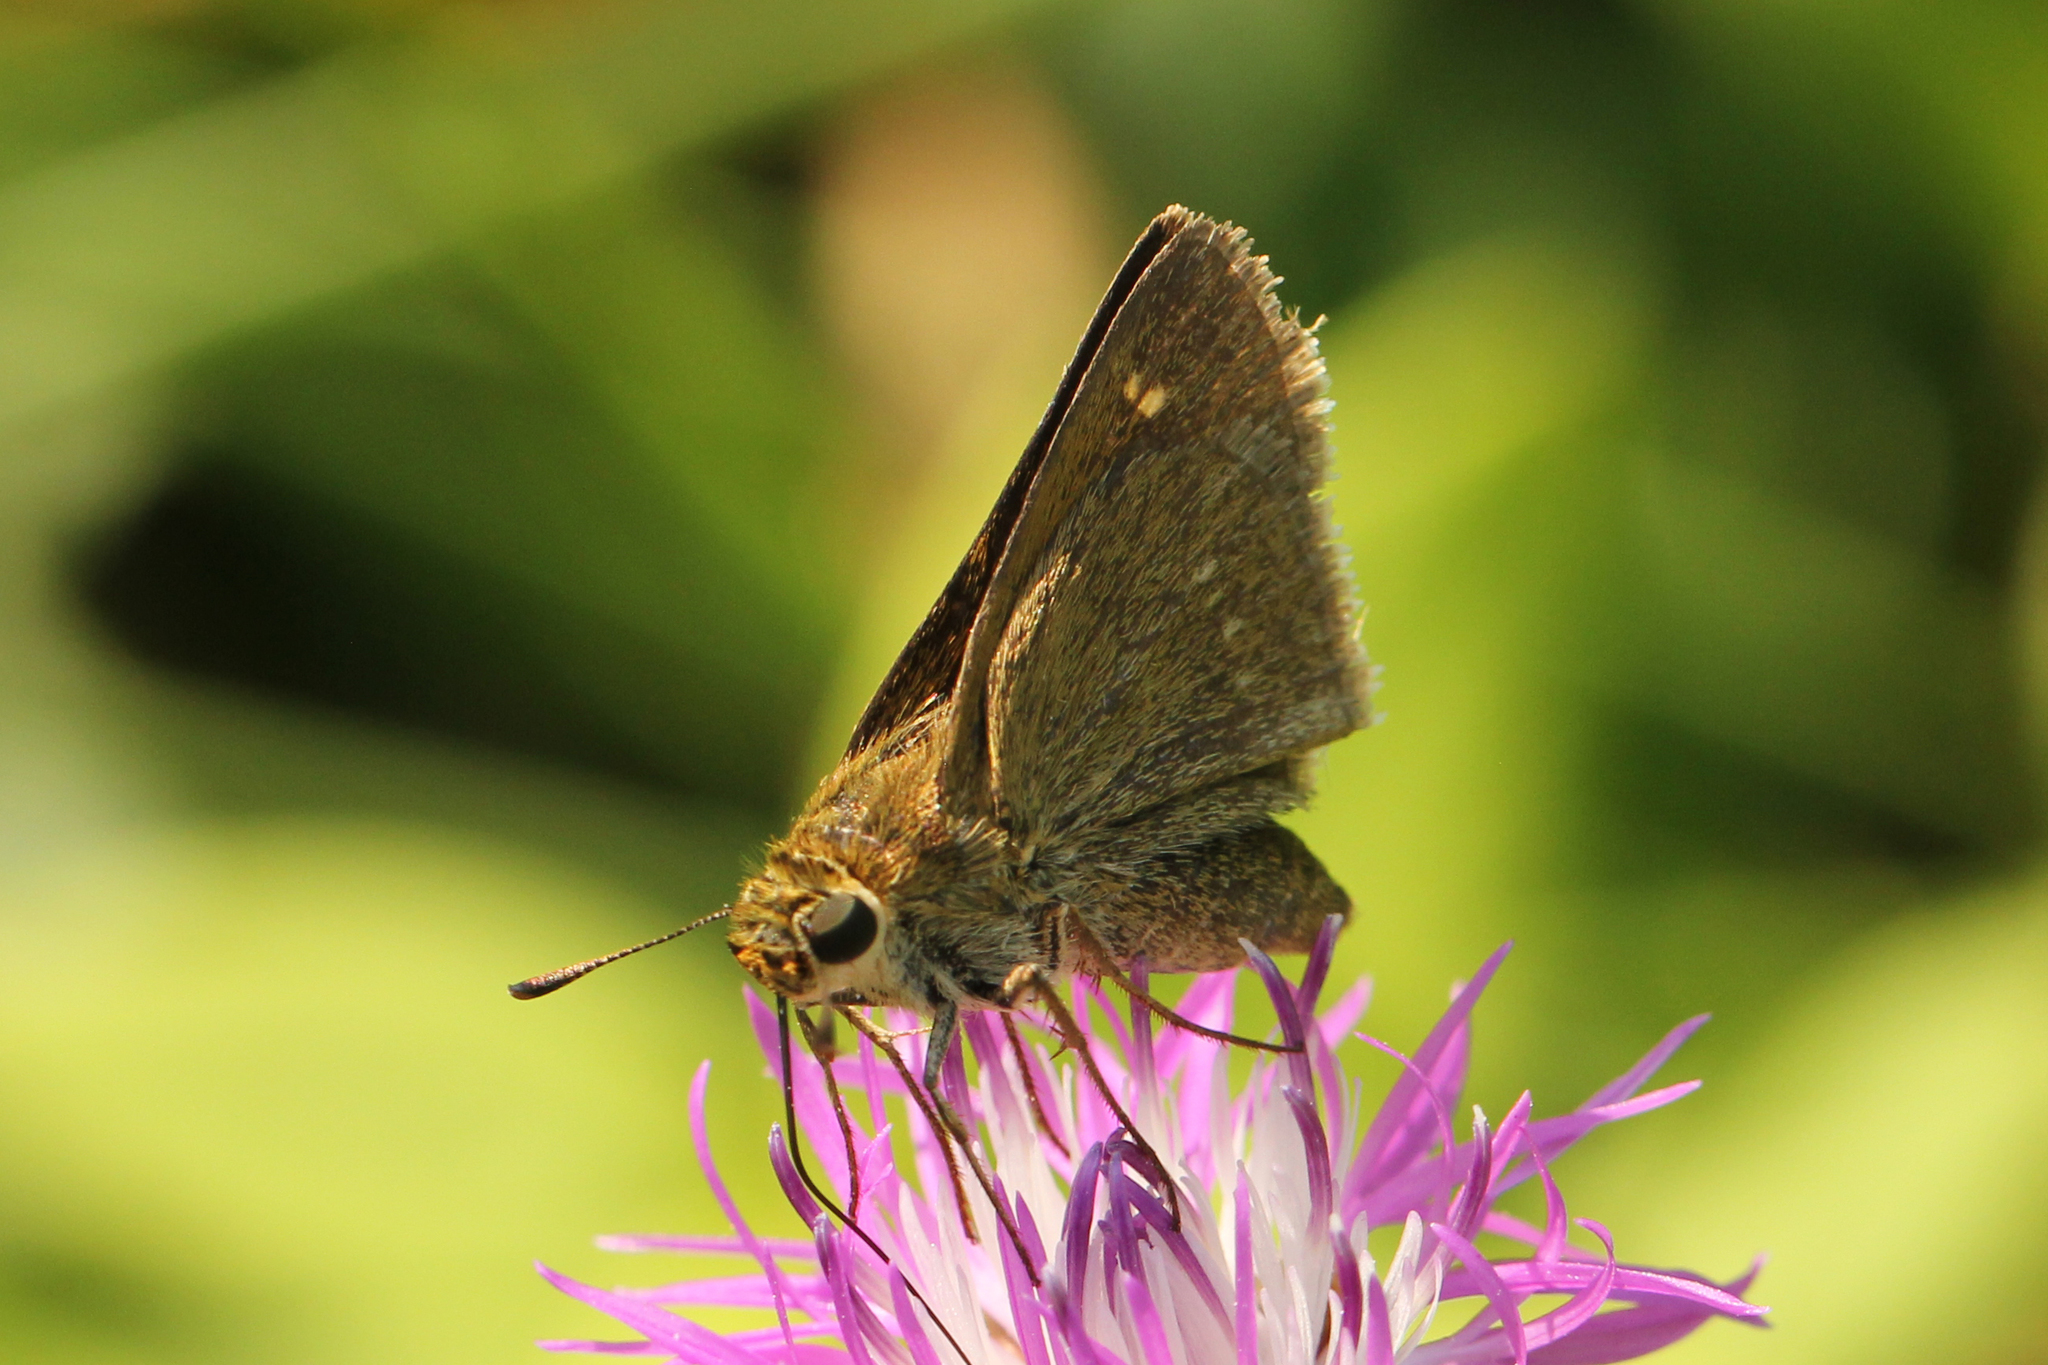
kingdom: Animalia
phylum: Arthropoda
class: Insecta
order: Lepidoptera
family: Hesperiidae
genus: Polites
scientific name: Polites origenes
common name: Crossline skipper
